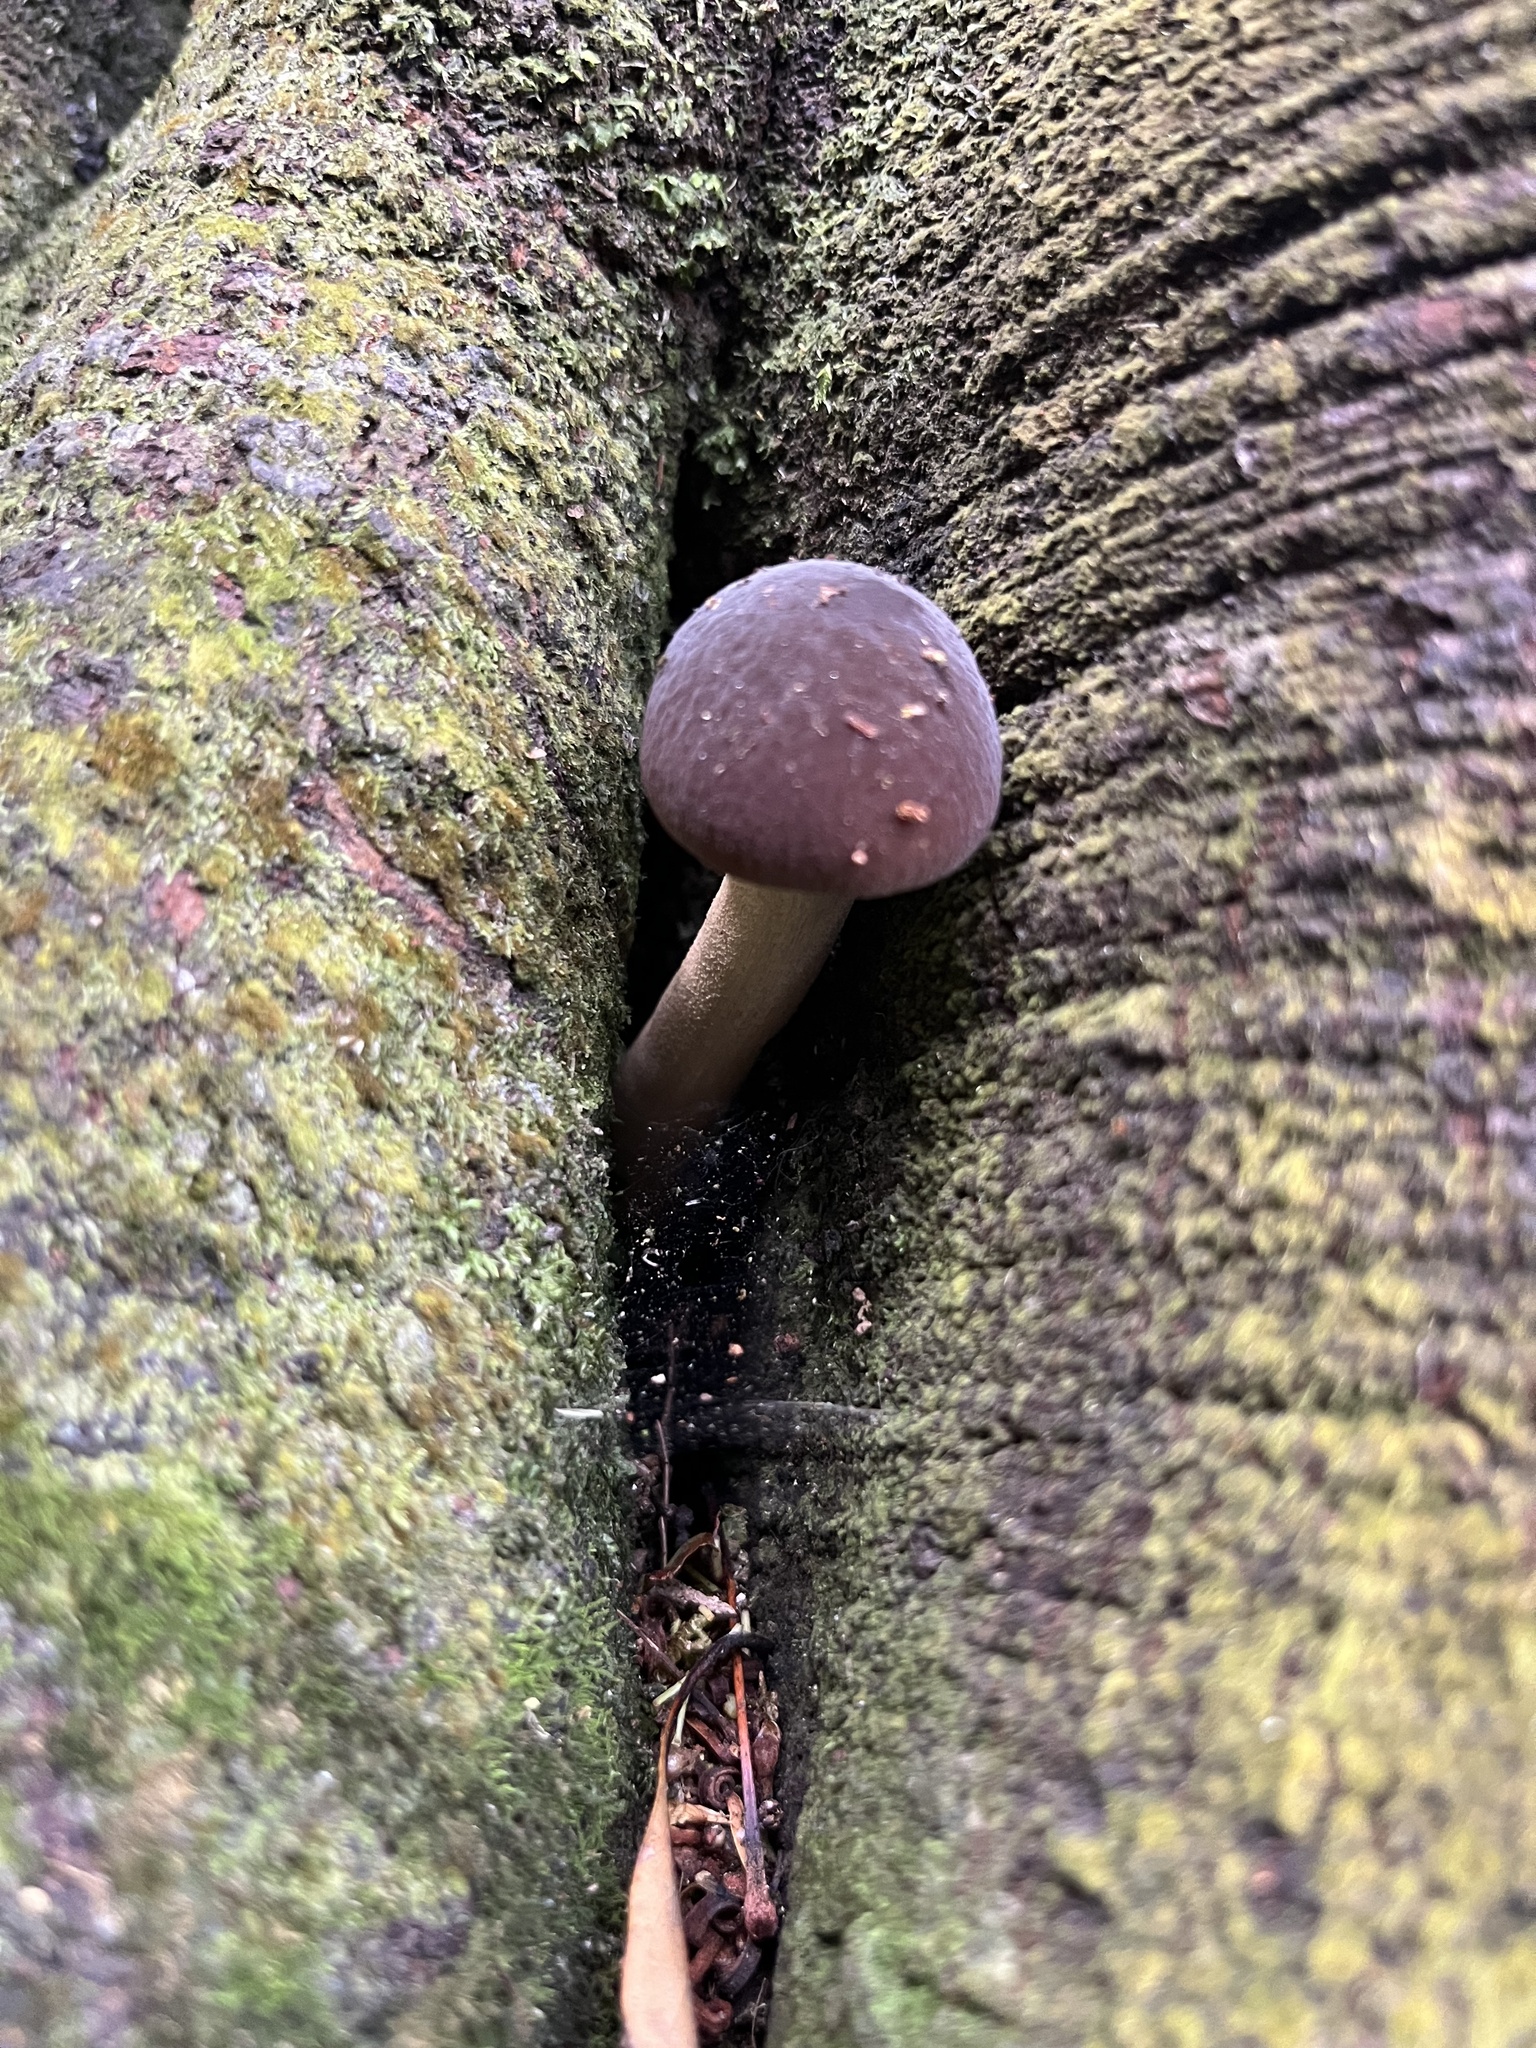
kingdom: Fungi
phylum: Basidiomycota
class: Agaricomycetes
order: Agaricales
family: Tubariaceae
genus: Cyclocybe
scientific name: Cyclocybe parasitica
